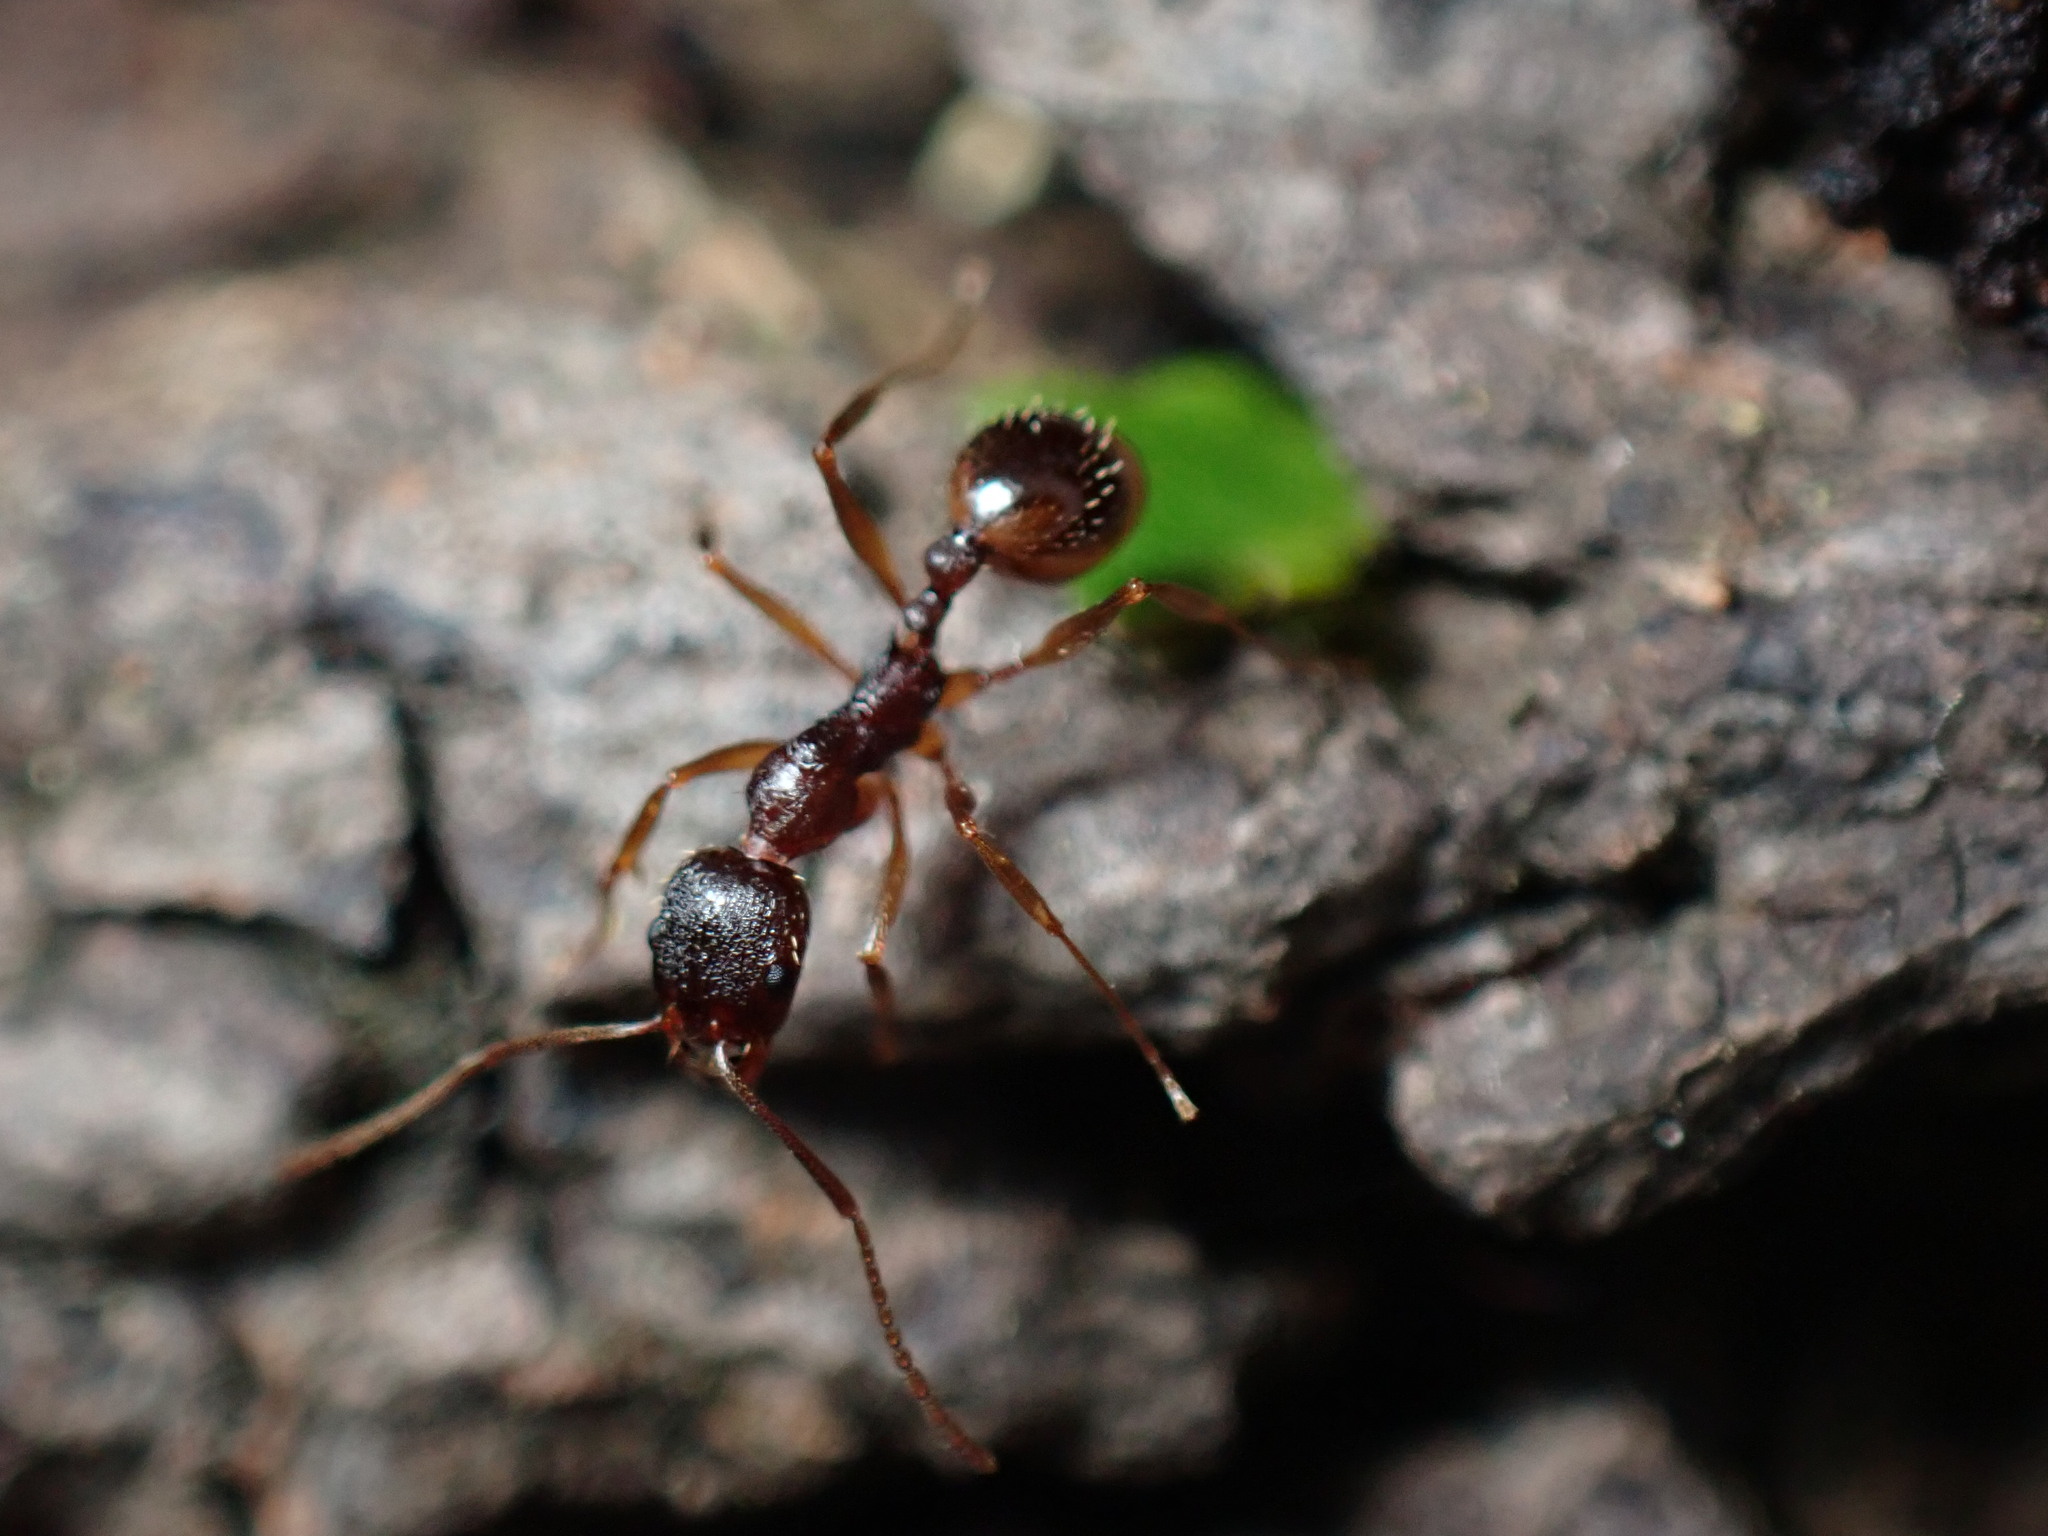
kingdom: Animalia
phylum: Arthropoda
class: Insecta
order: Hymenoptera
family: Formicidae
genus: Aphaenogaster
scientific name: Aphaenogaster rudis
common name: Winnow ant
